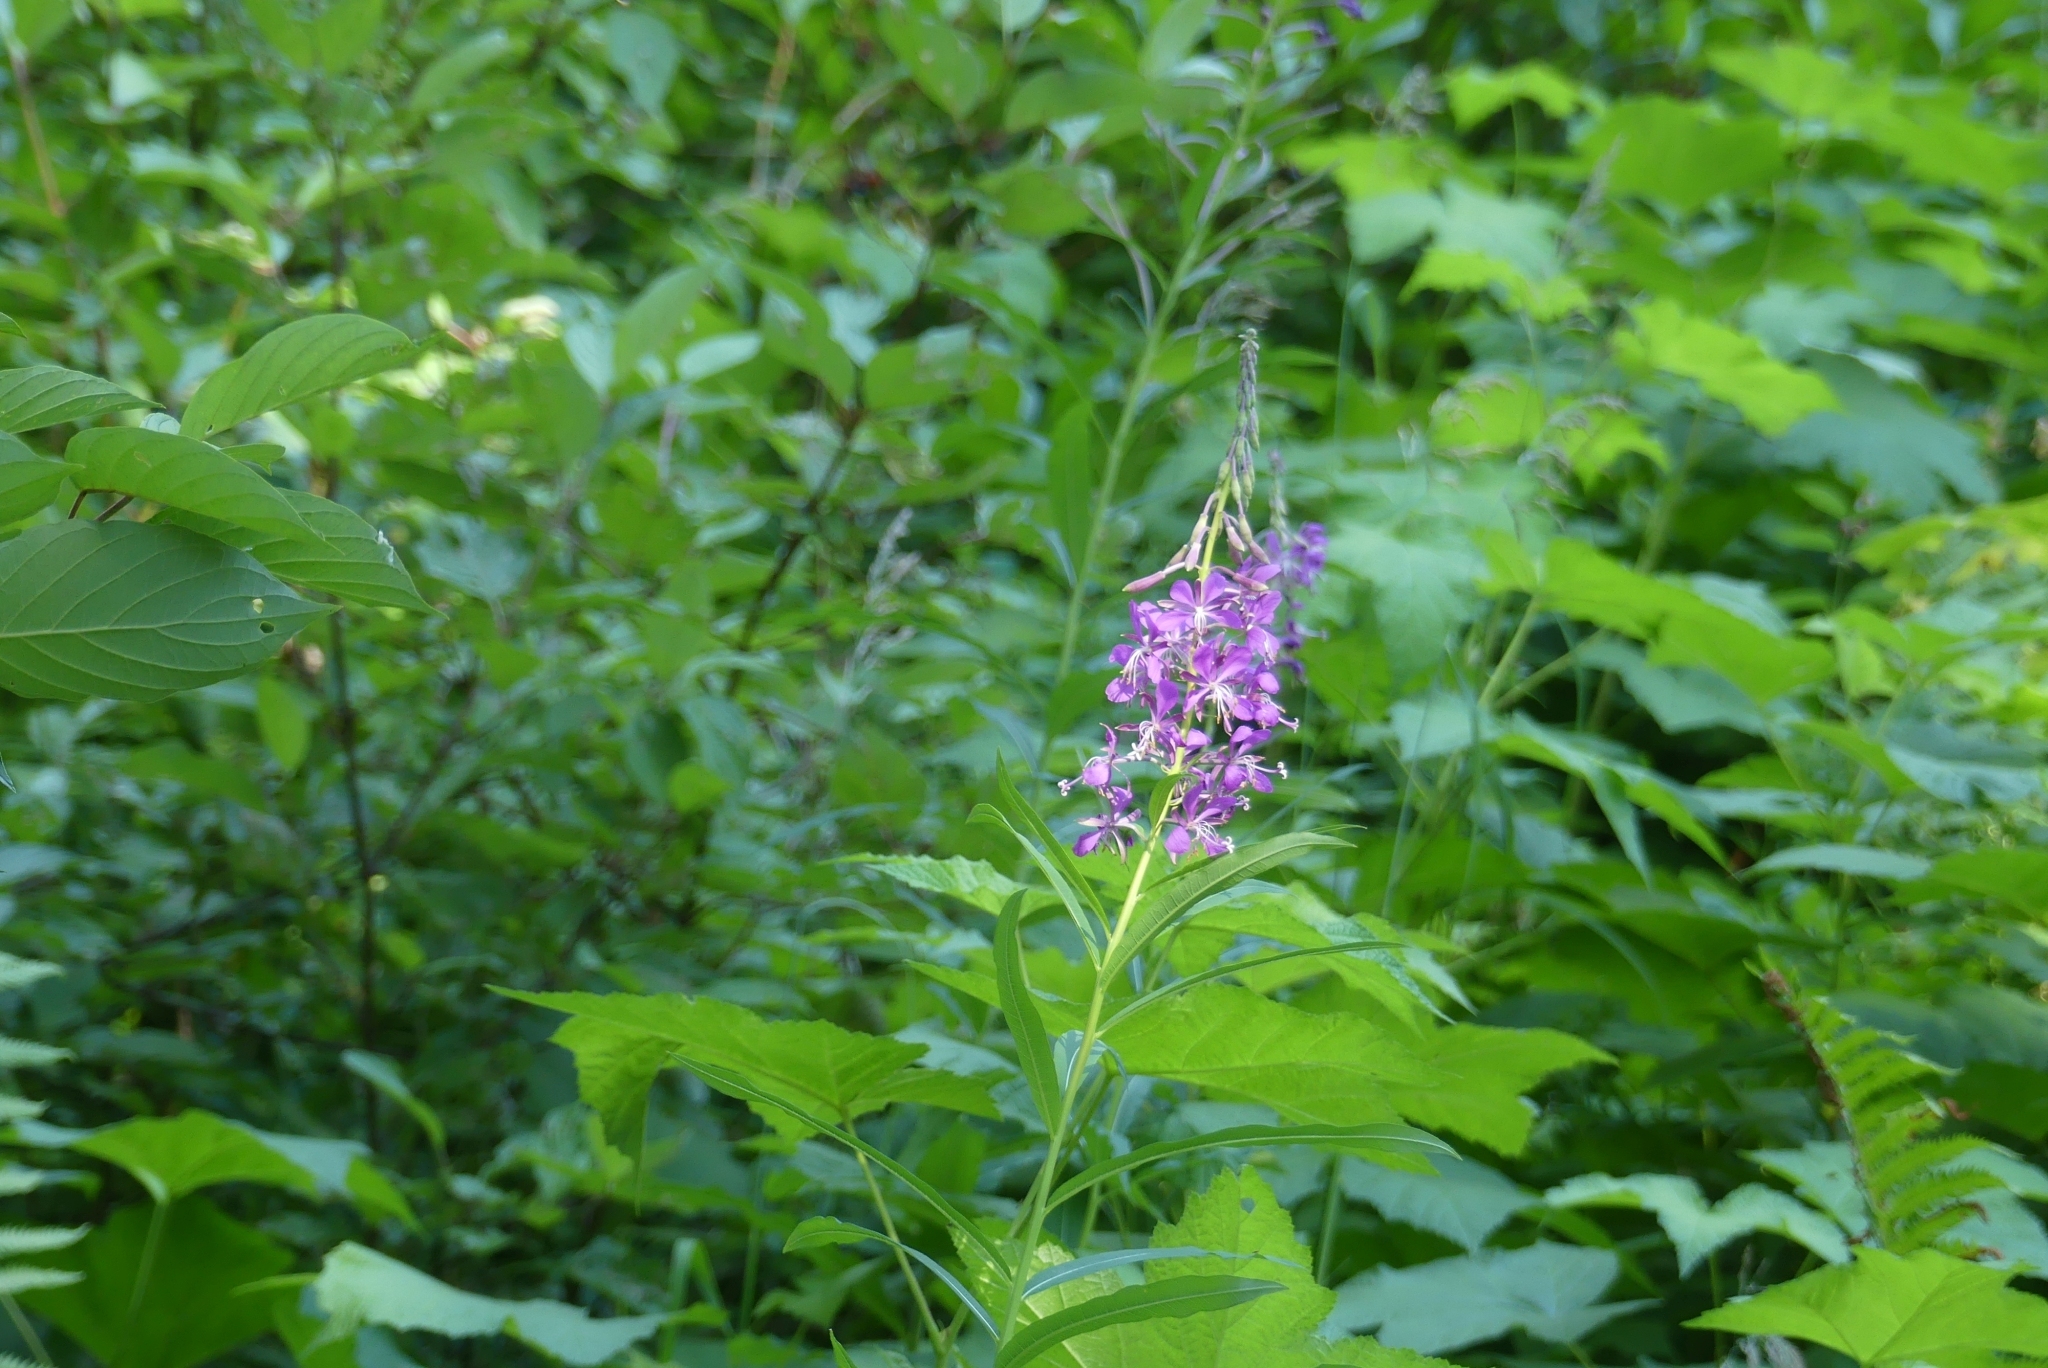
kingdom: Plantae
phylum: Tracheophyta
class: Magnoliopsida
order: Myrtales
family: Onagraceae
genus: Chamaenerion
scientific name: Chamaenerion angustifolium
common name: Fireweed
